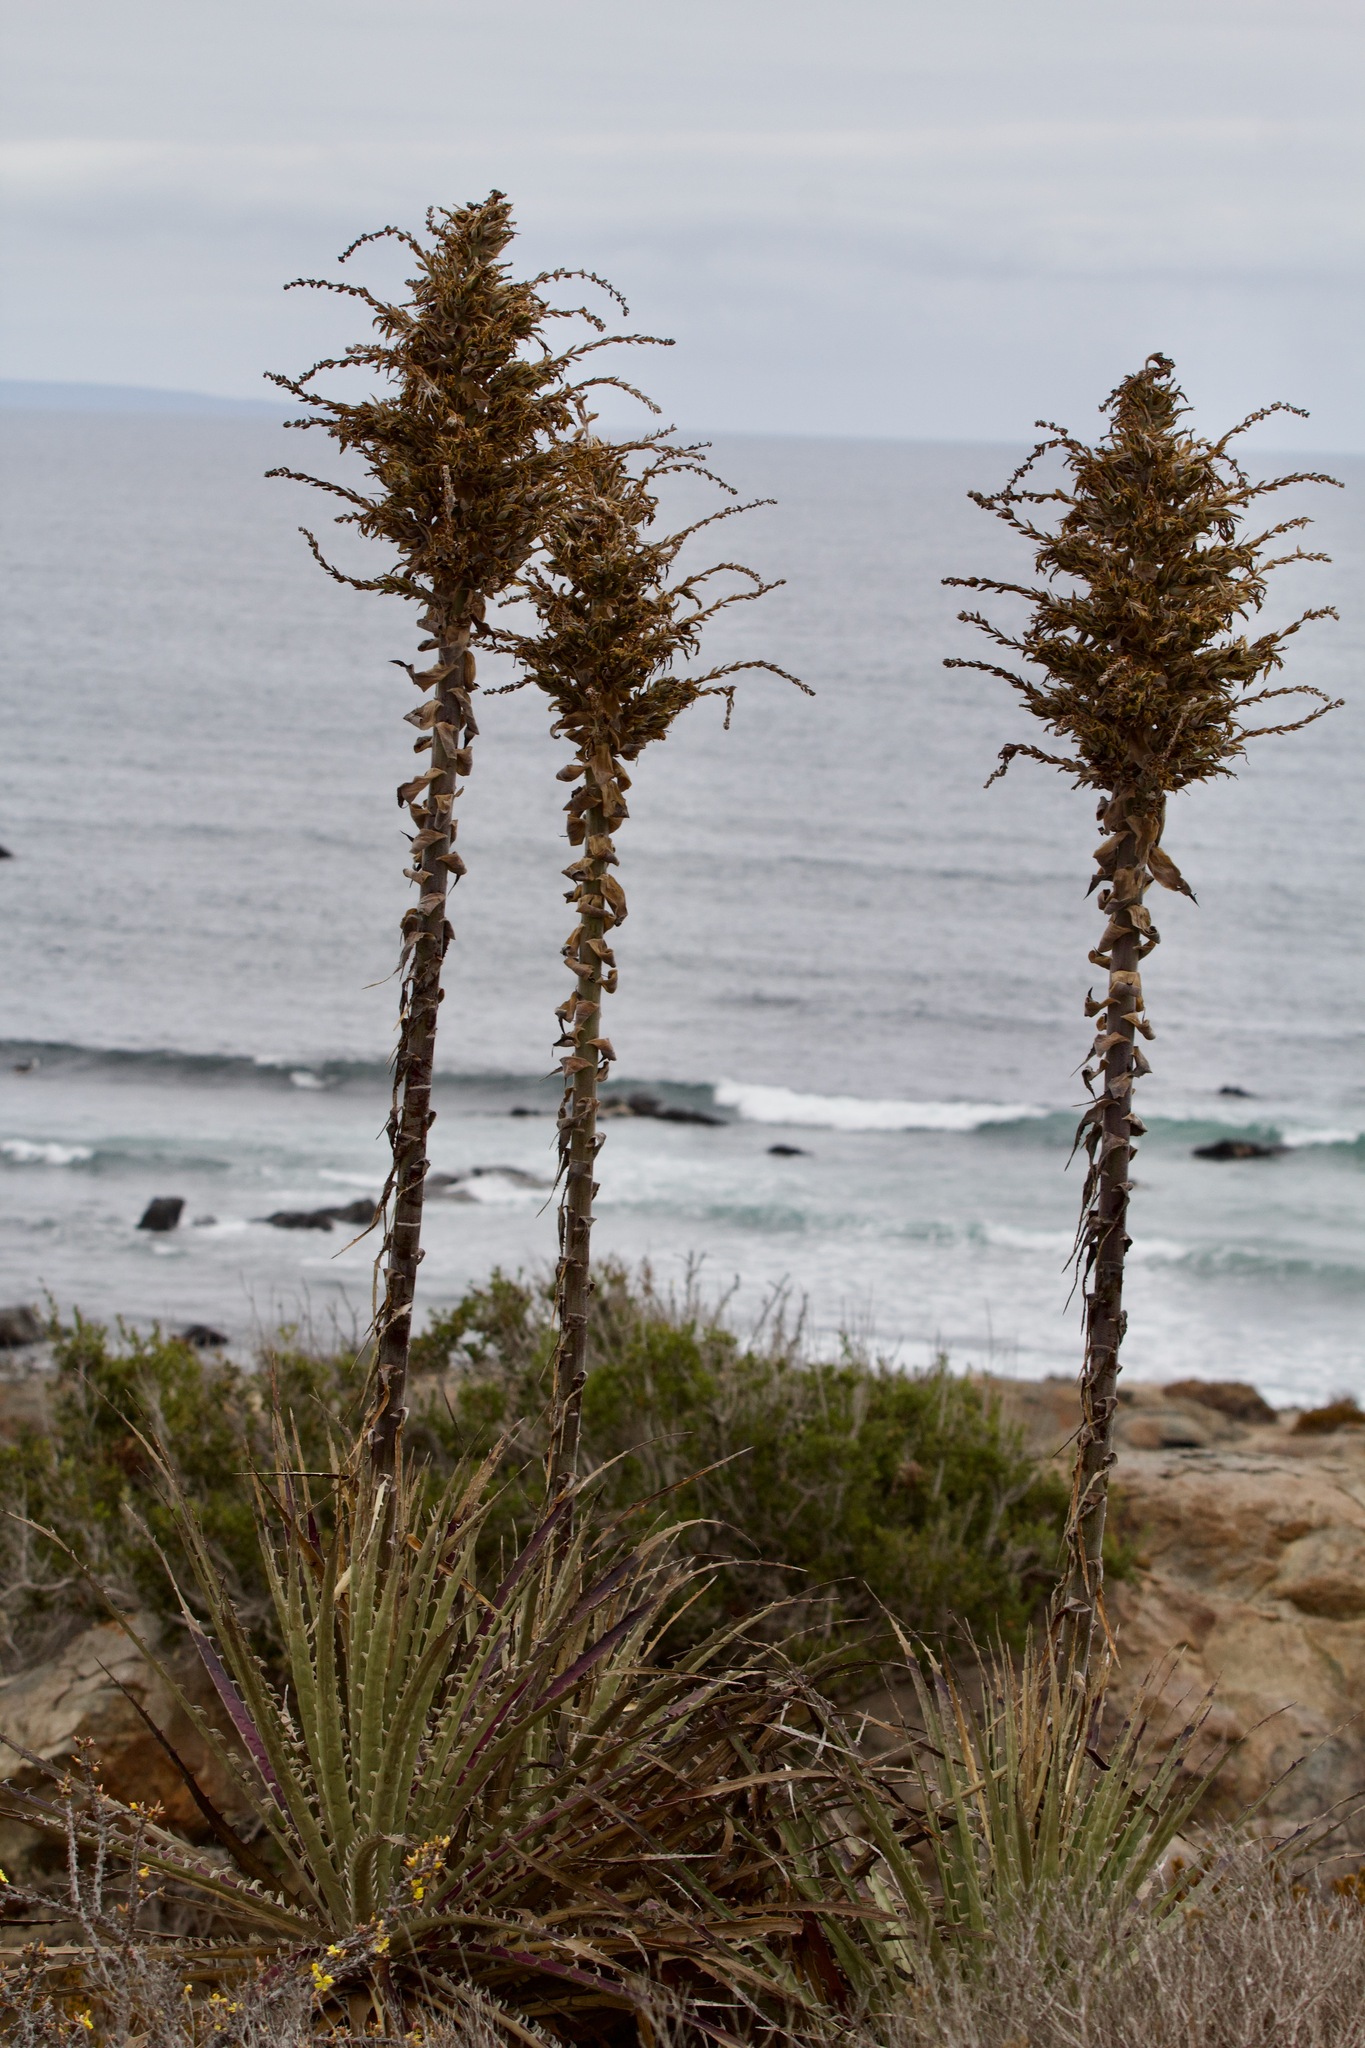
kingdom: Plantae
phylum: Tracheophyta
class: Liliopsida
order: Poales
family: Bromeliaceae
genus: Puya
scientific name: Puya chilensis
